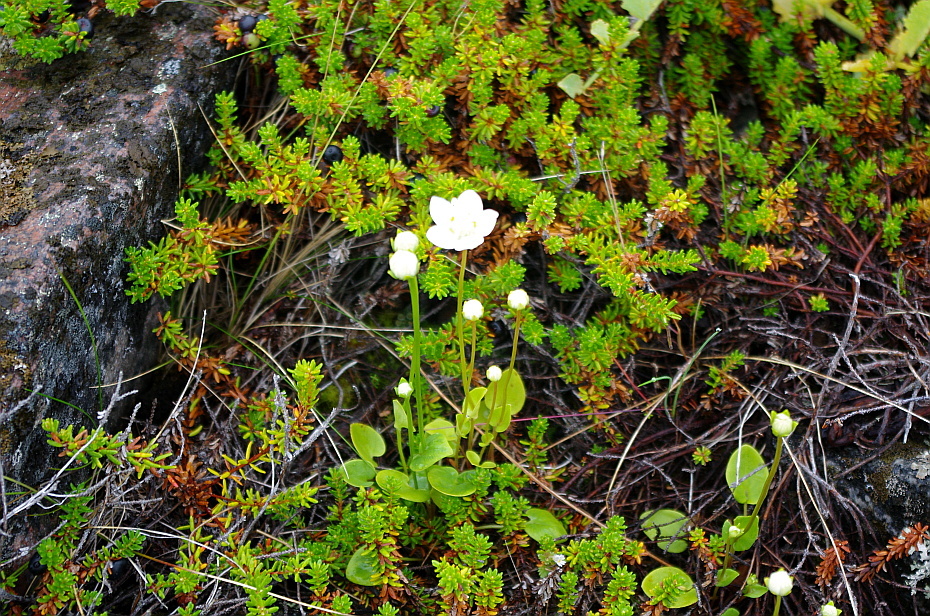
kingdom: Plantae
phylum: Tracheophyta
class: Magnoliopsida
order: Celastrales
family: Parnassiaceae
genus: Parnassia
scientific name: Parnassia palustris
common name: Grass-of-parnassus
